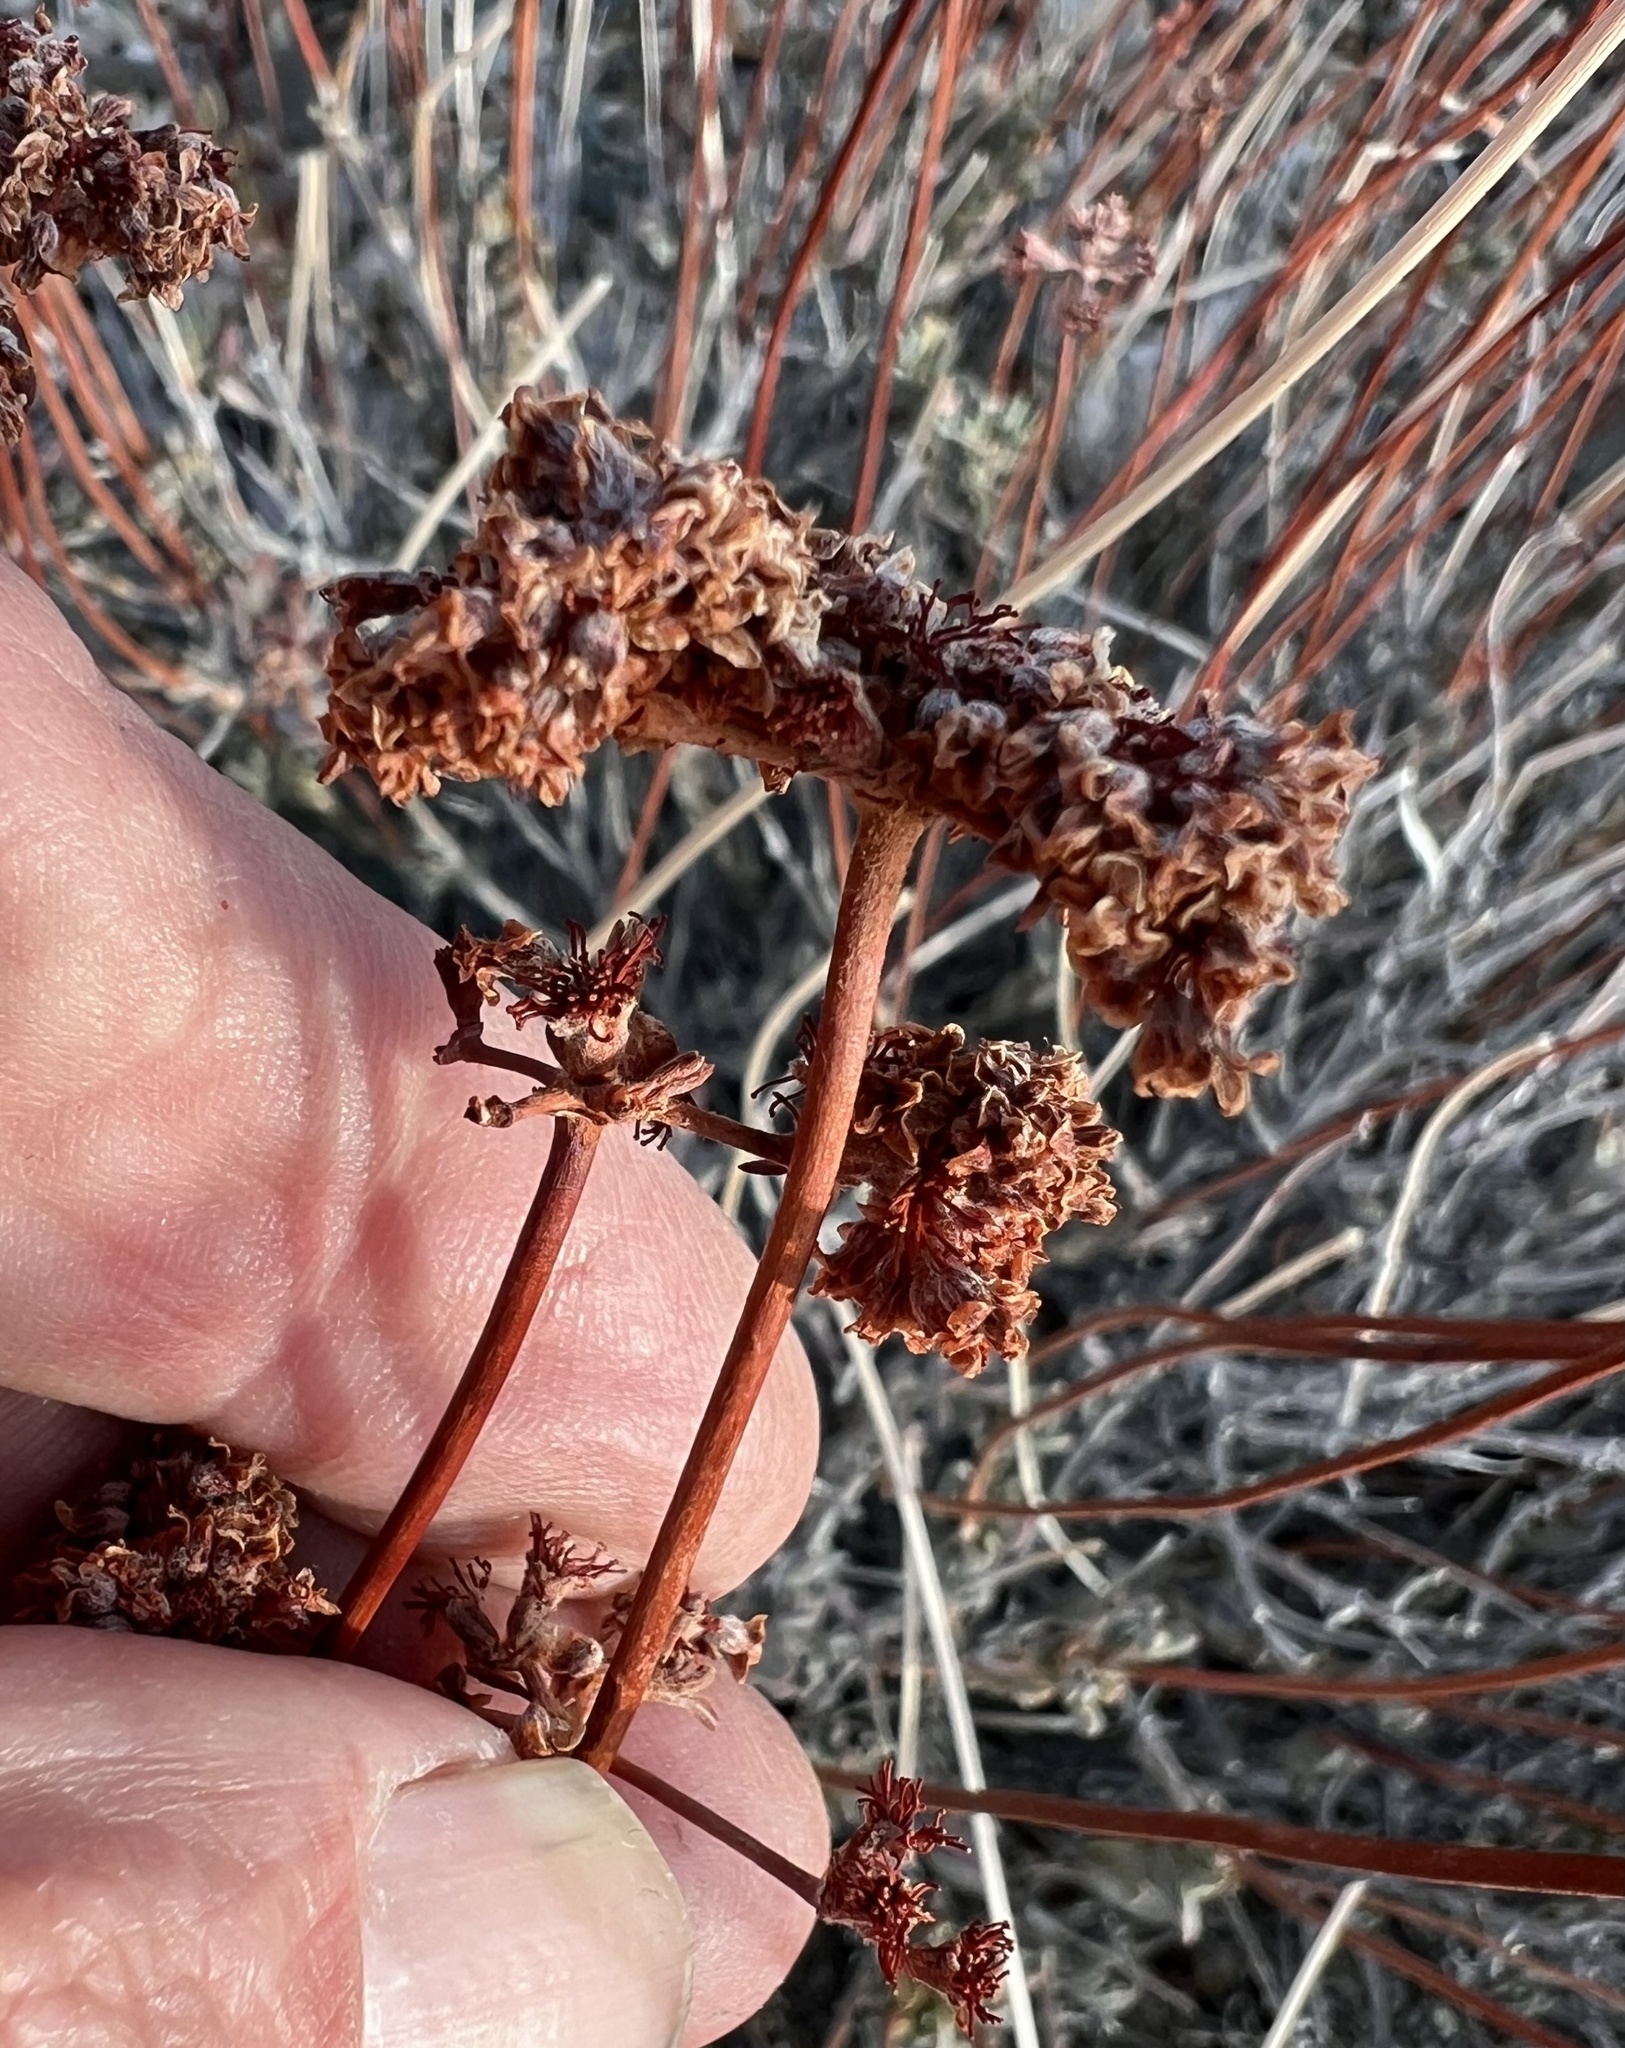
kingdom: Plantae
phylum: Tracheophyta
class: Magnoliopsida
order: Caryophyllales
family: Polygonaceae
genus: Eriogonum
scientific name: Eriogonum fasciculatum
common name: California wild buckwheat
